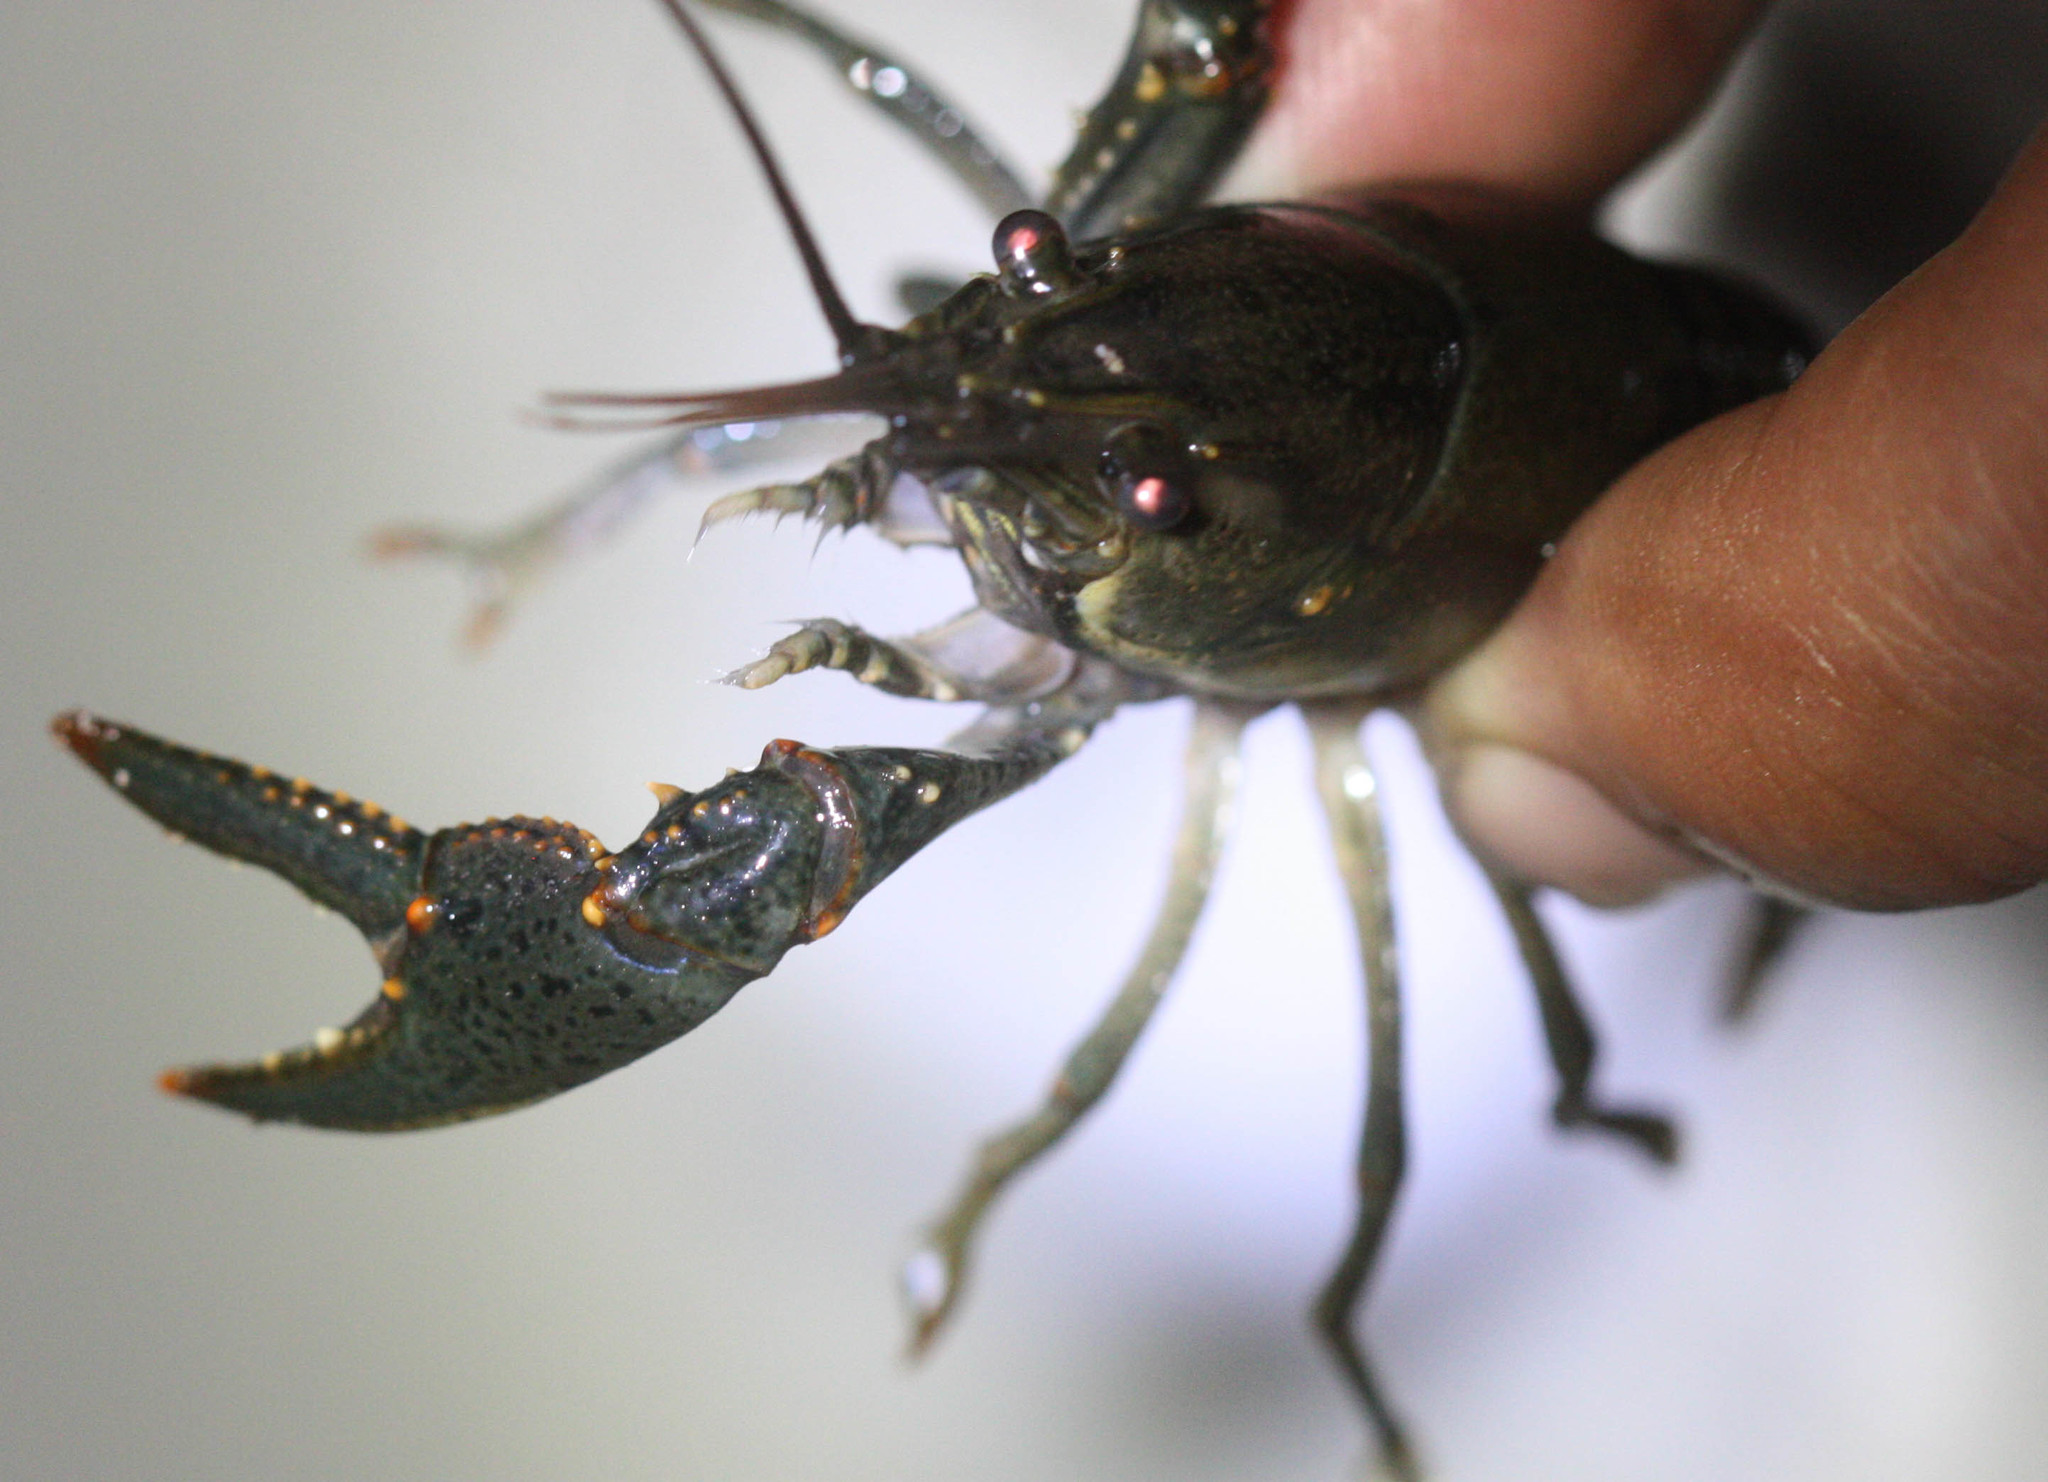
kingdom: Animalia
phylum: Arthropoda
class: Malacostraca
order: Decapoda
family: Cambaridae
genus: Faxonius
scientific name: Faxonius virilis
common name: Virile crayfish
